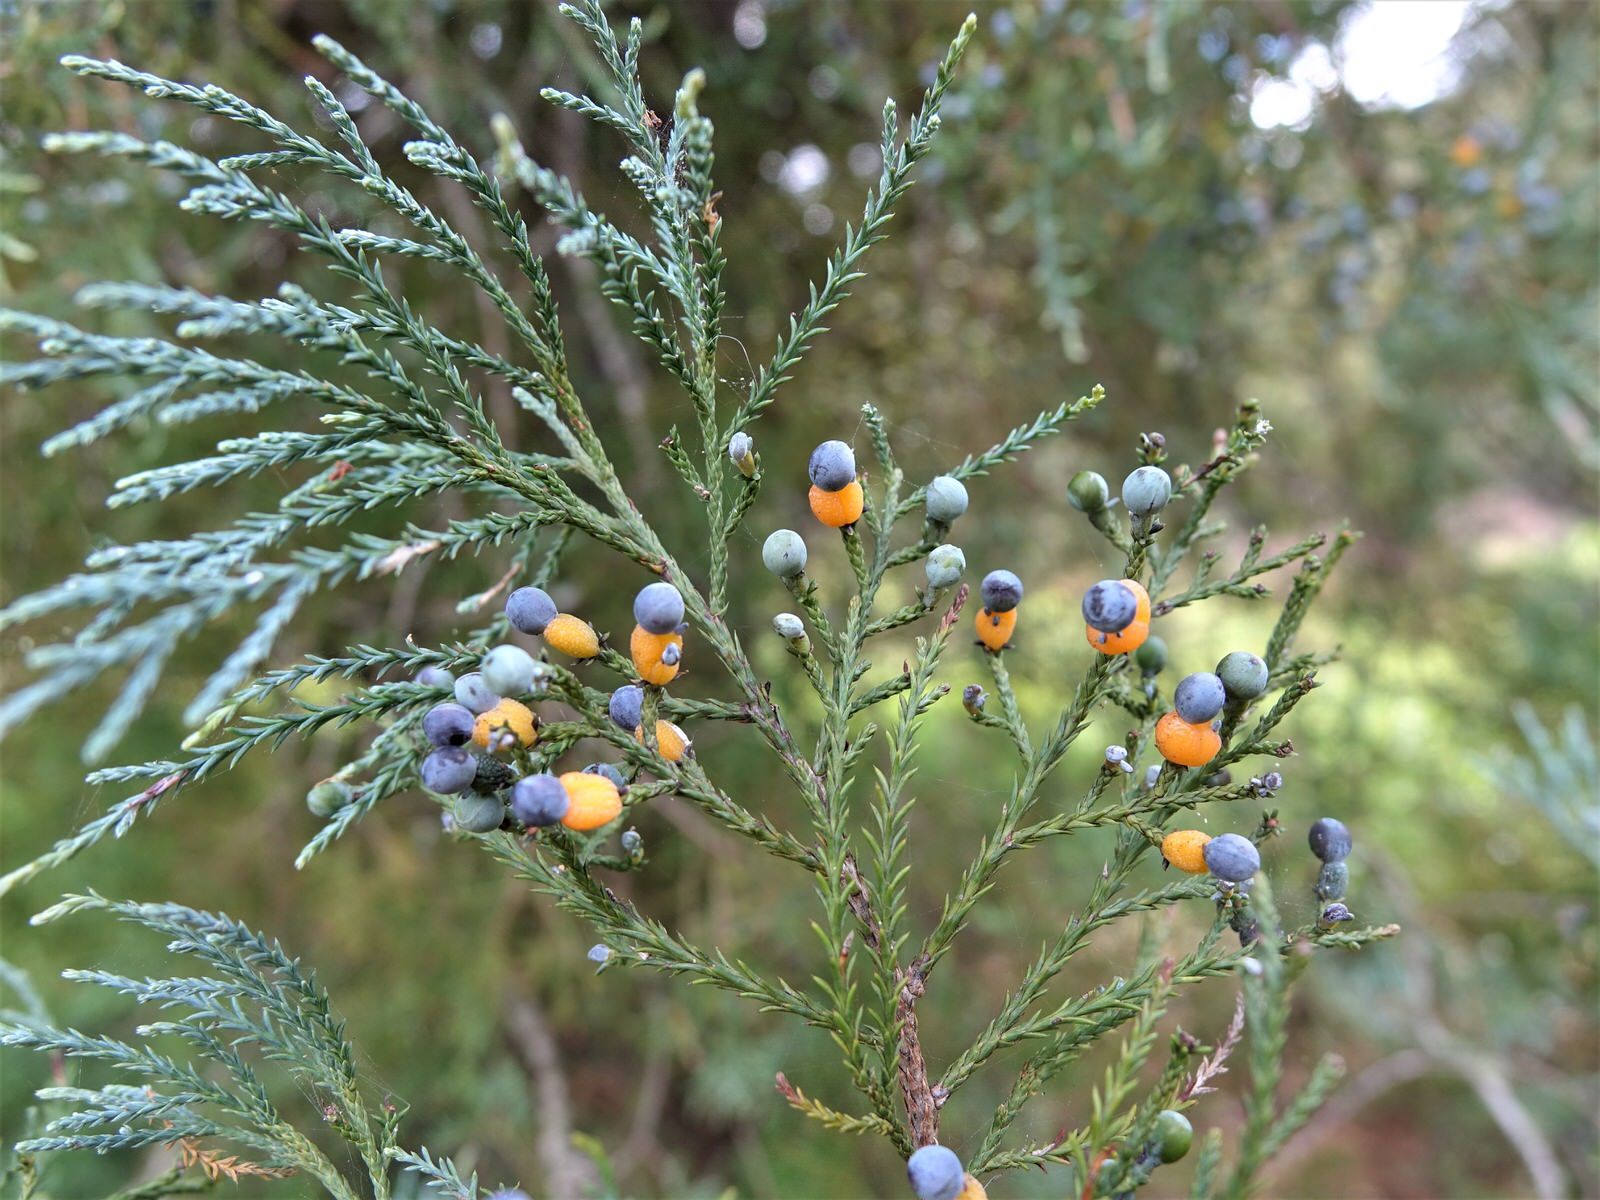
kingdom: Plantae
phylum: Tracheophyta
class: Pinopsida
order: Pinales
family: Podocarpaceae
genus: Dacrycarpus
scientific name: Dacrycarpus dacrydioides
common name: White pine
